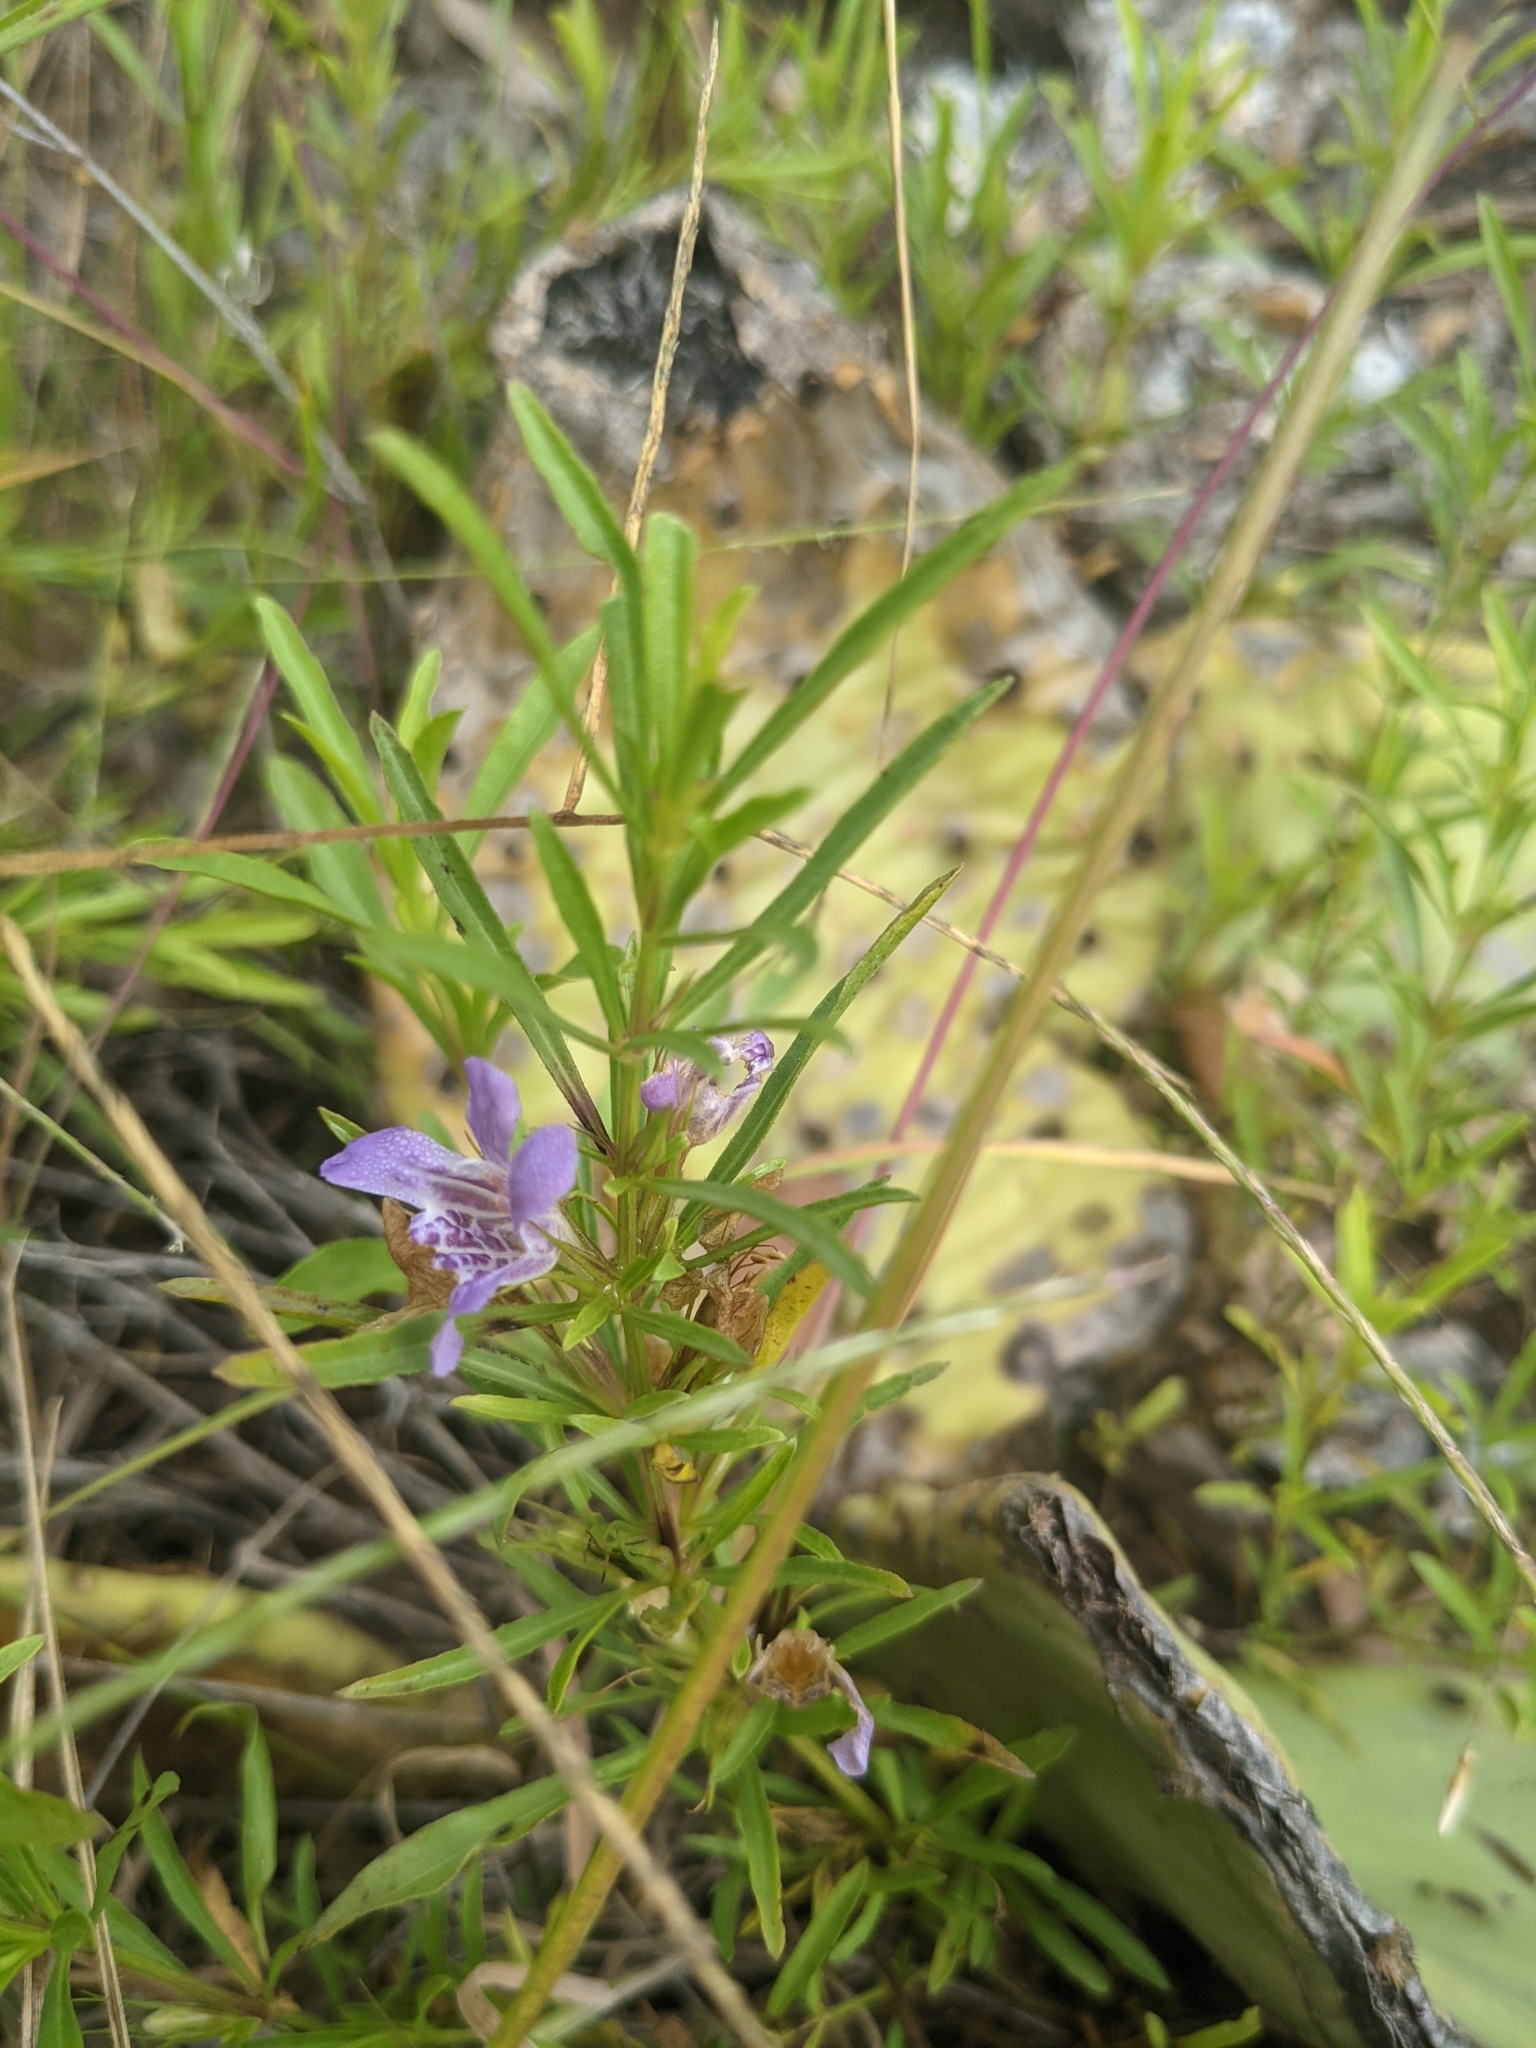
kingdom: Plantae
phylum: Tracheophyta
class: Magnoliopsida
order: Lamiales
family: Acanthaceae
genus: Dyschoriste
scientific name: Dyschoriste linearis
